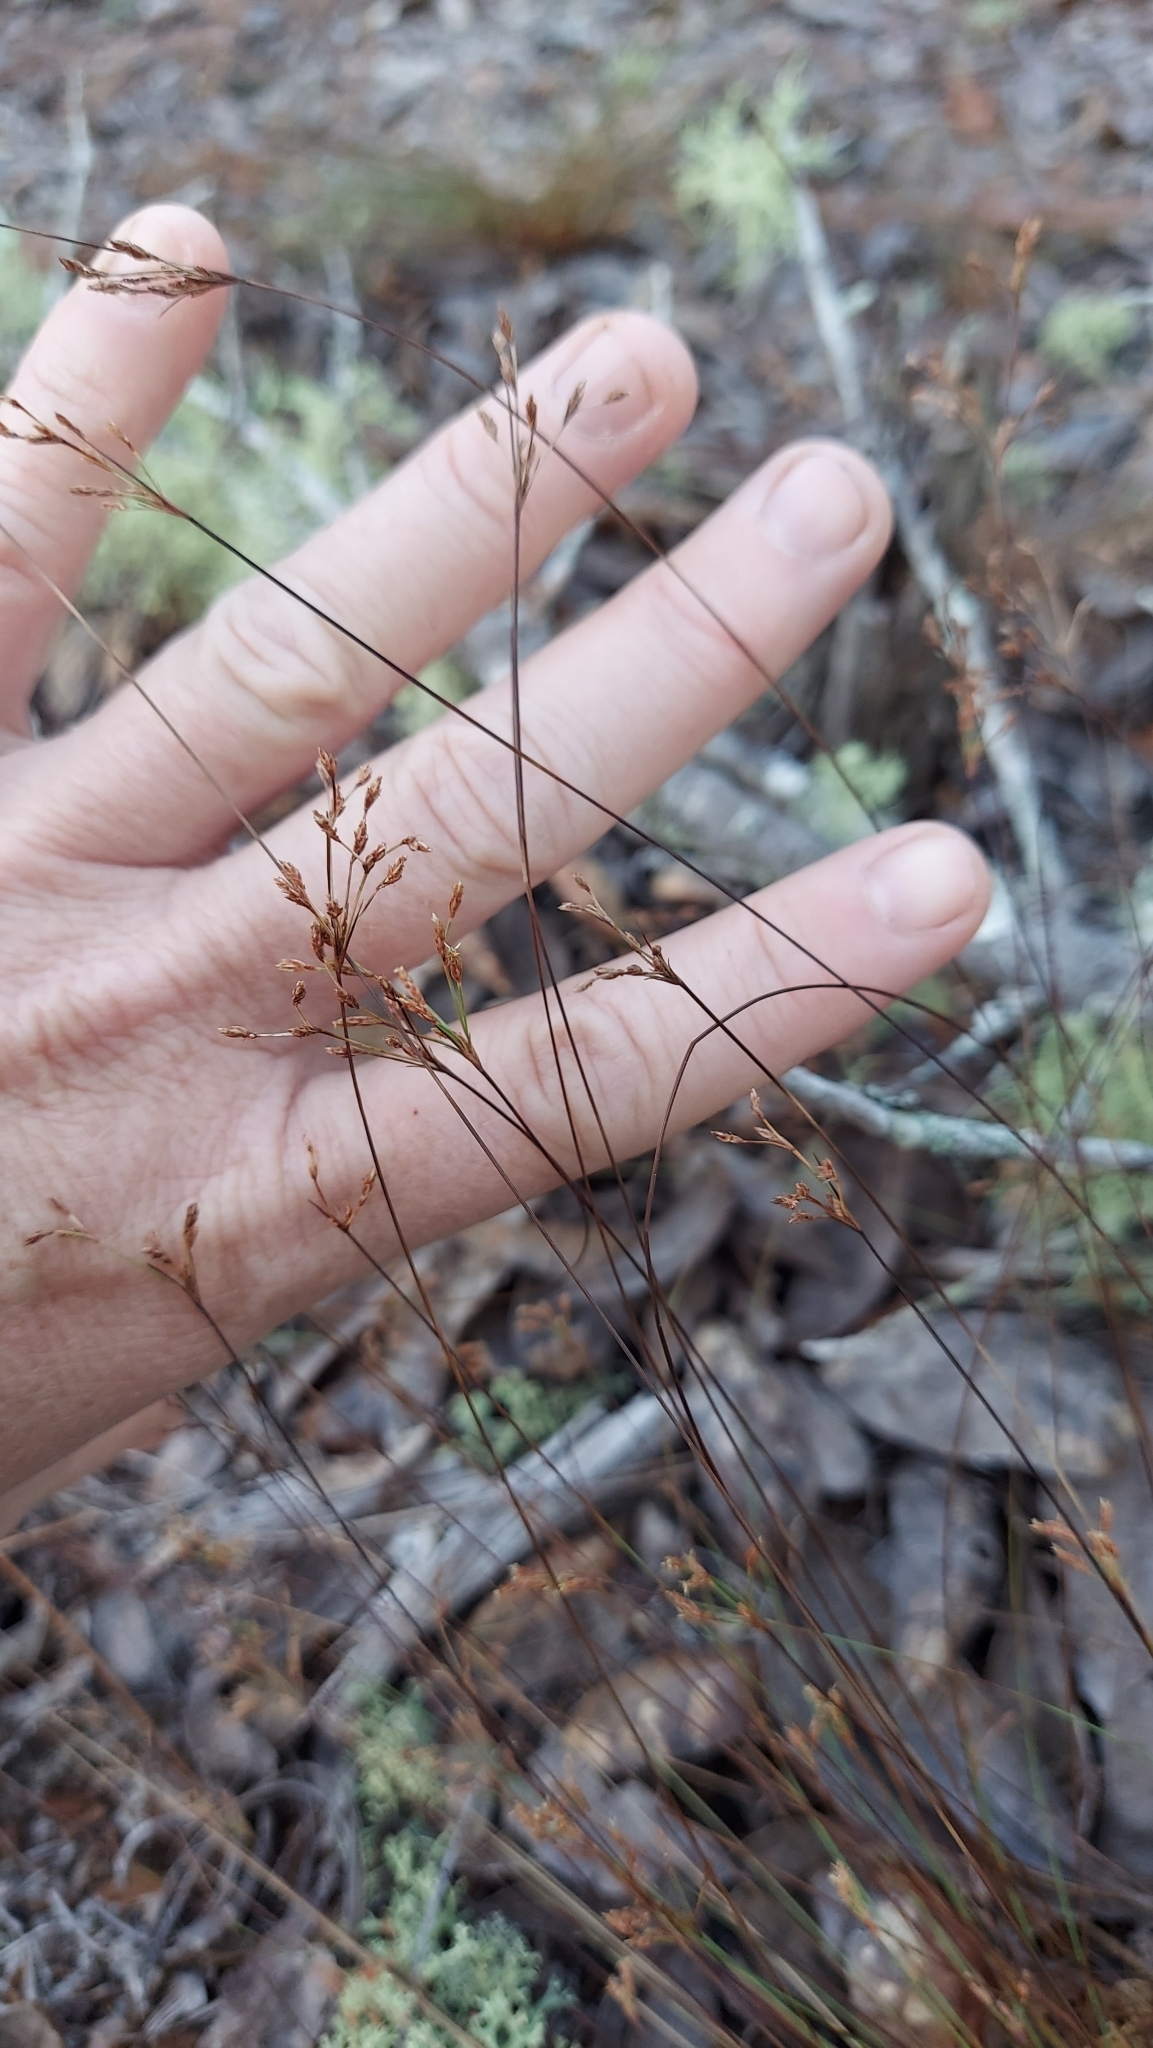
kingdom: Plantae
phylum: Tracheophyta
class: Liliopsida
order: Poales
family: Cyperaceae
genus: Bulbostylis
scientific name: Bulbostylis ciliatifolia
